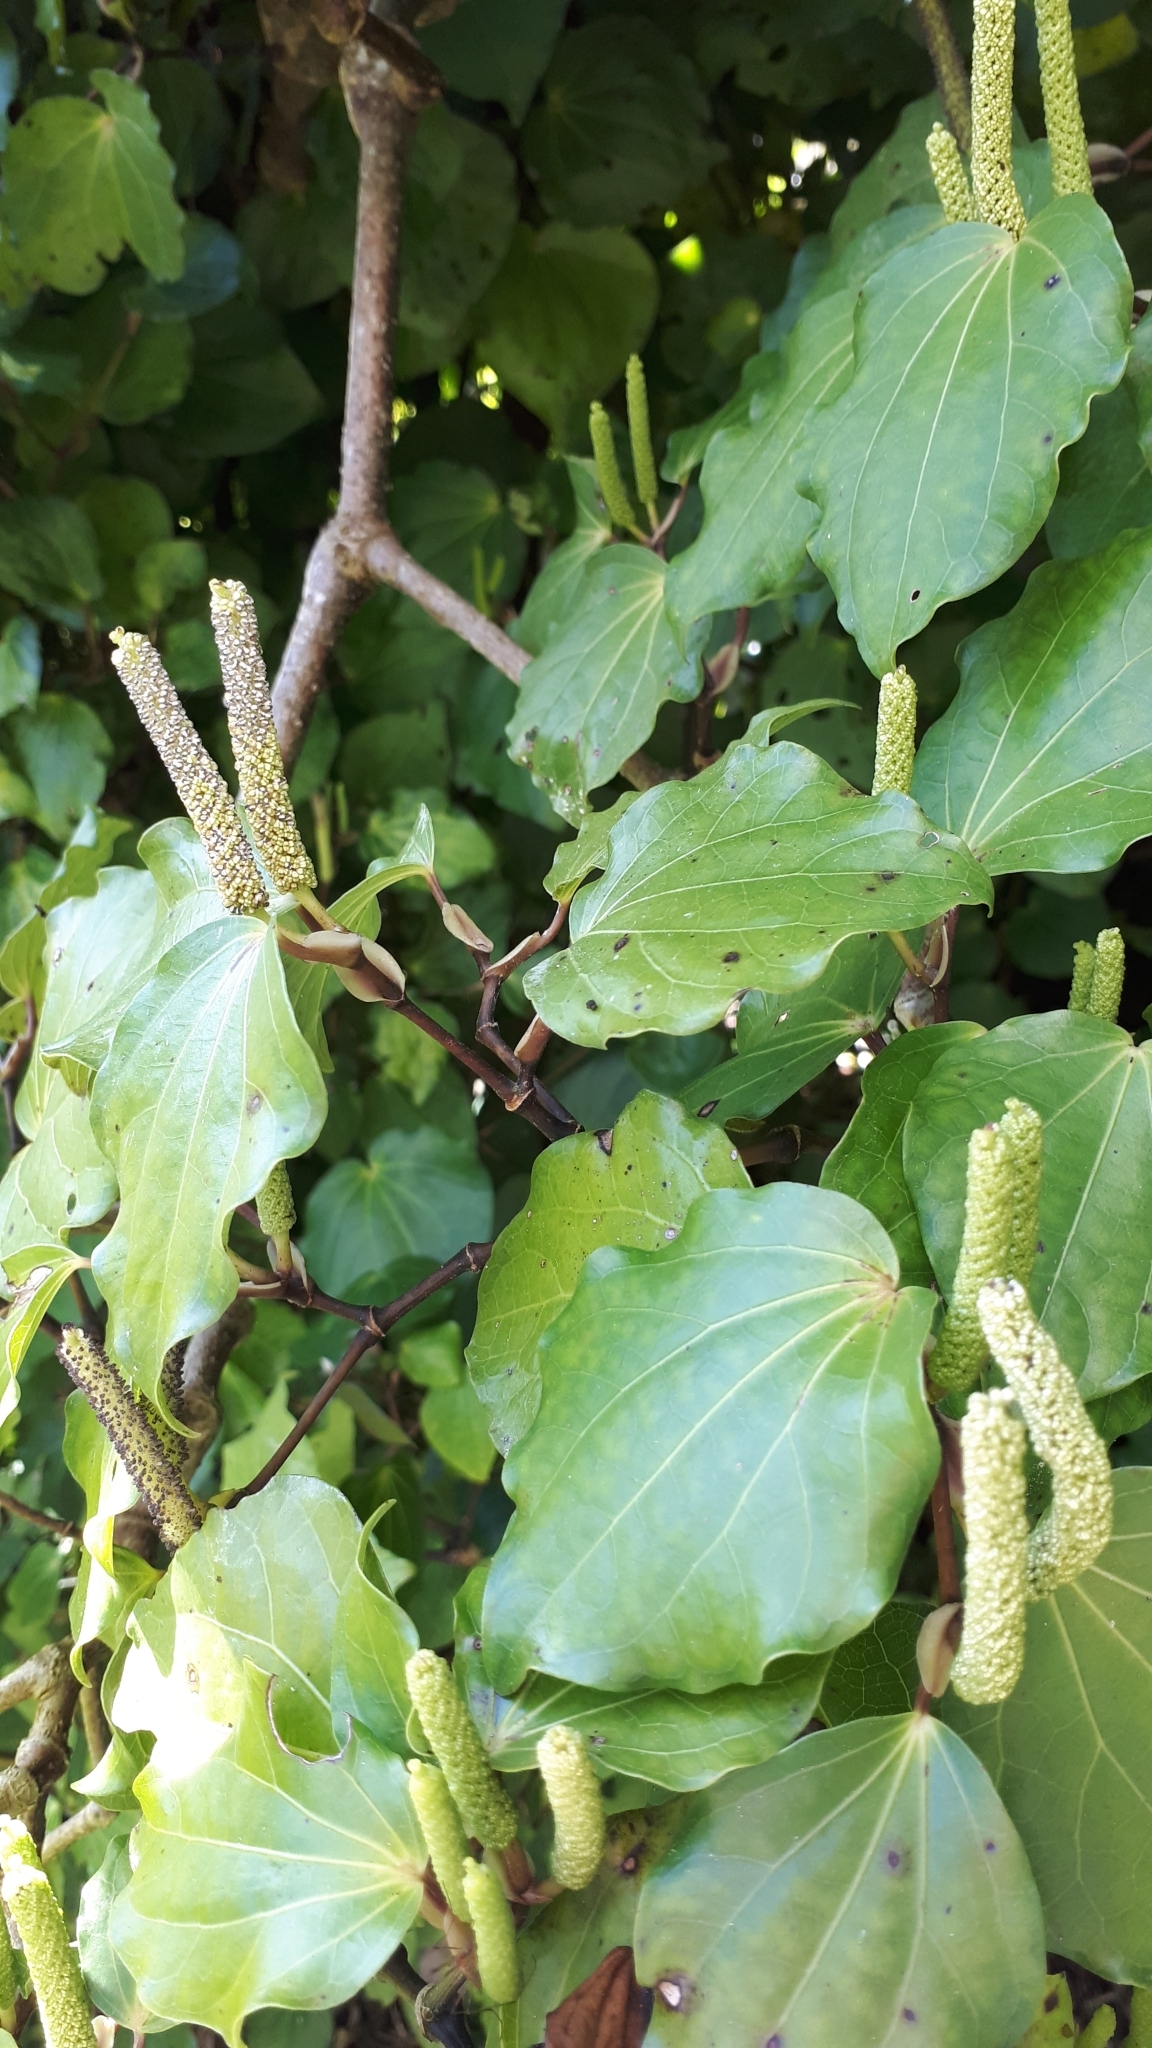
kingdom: Plantae
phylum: Tracheophyta
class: Magnoliopsida
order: Piperales
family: Piperaceae
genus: Macropiper
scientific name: Macropiper excelsum
